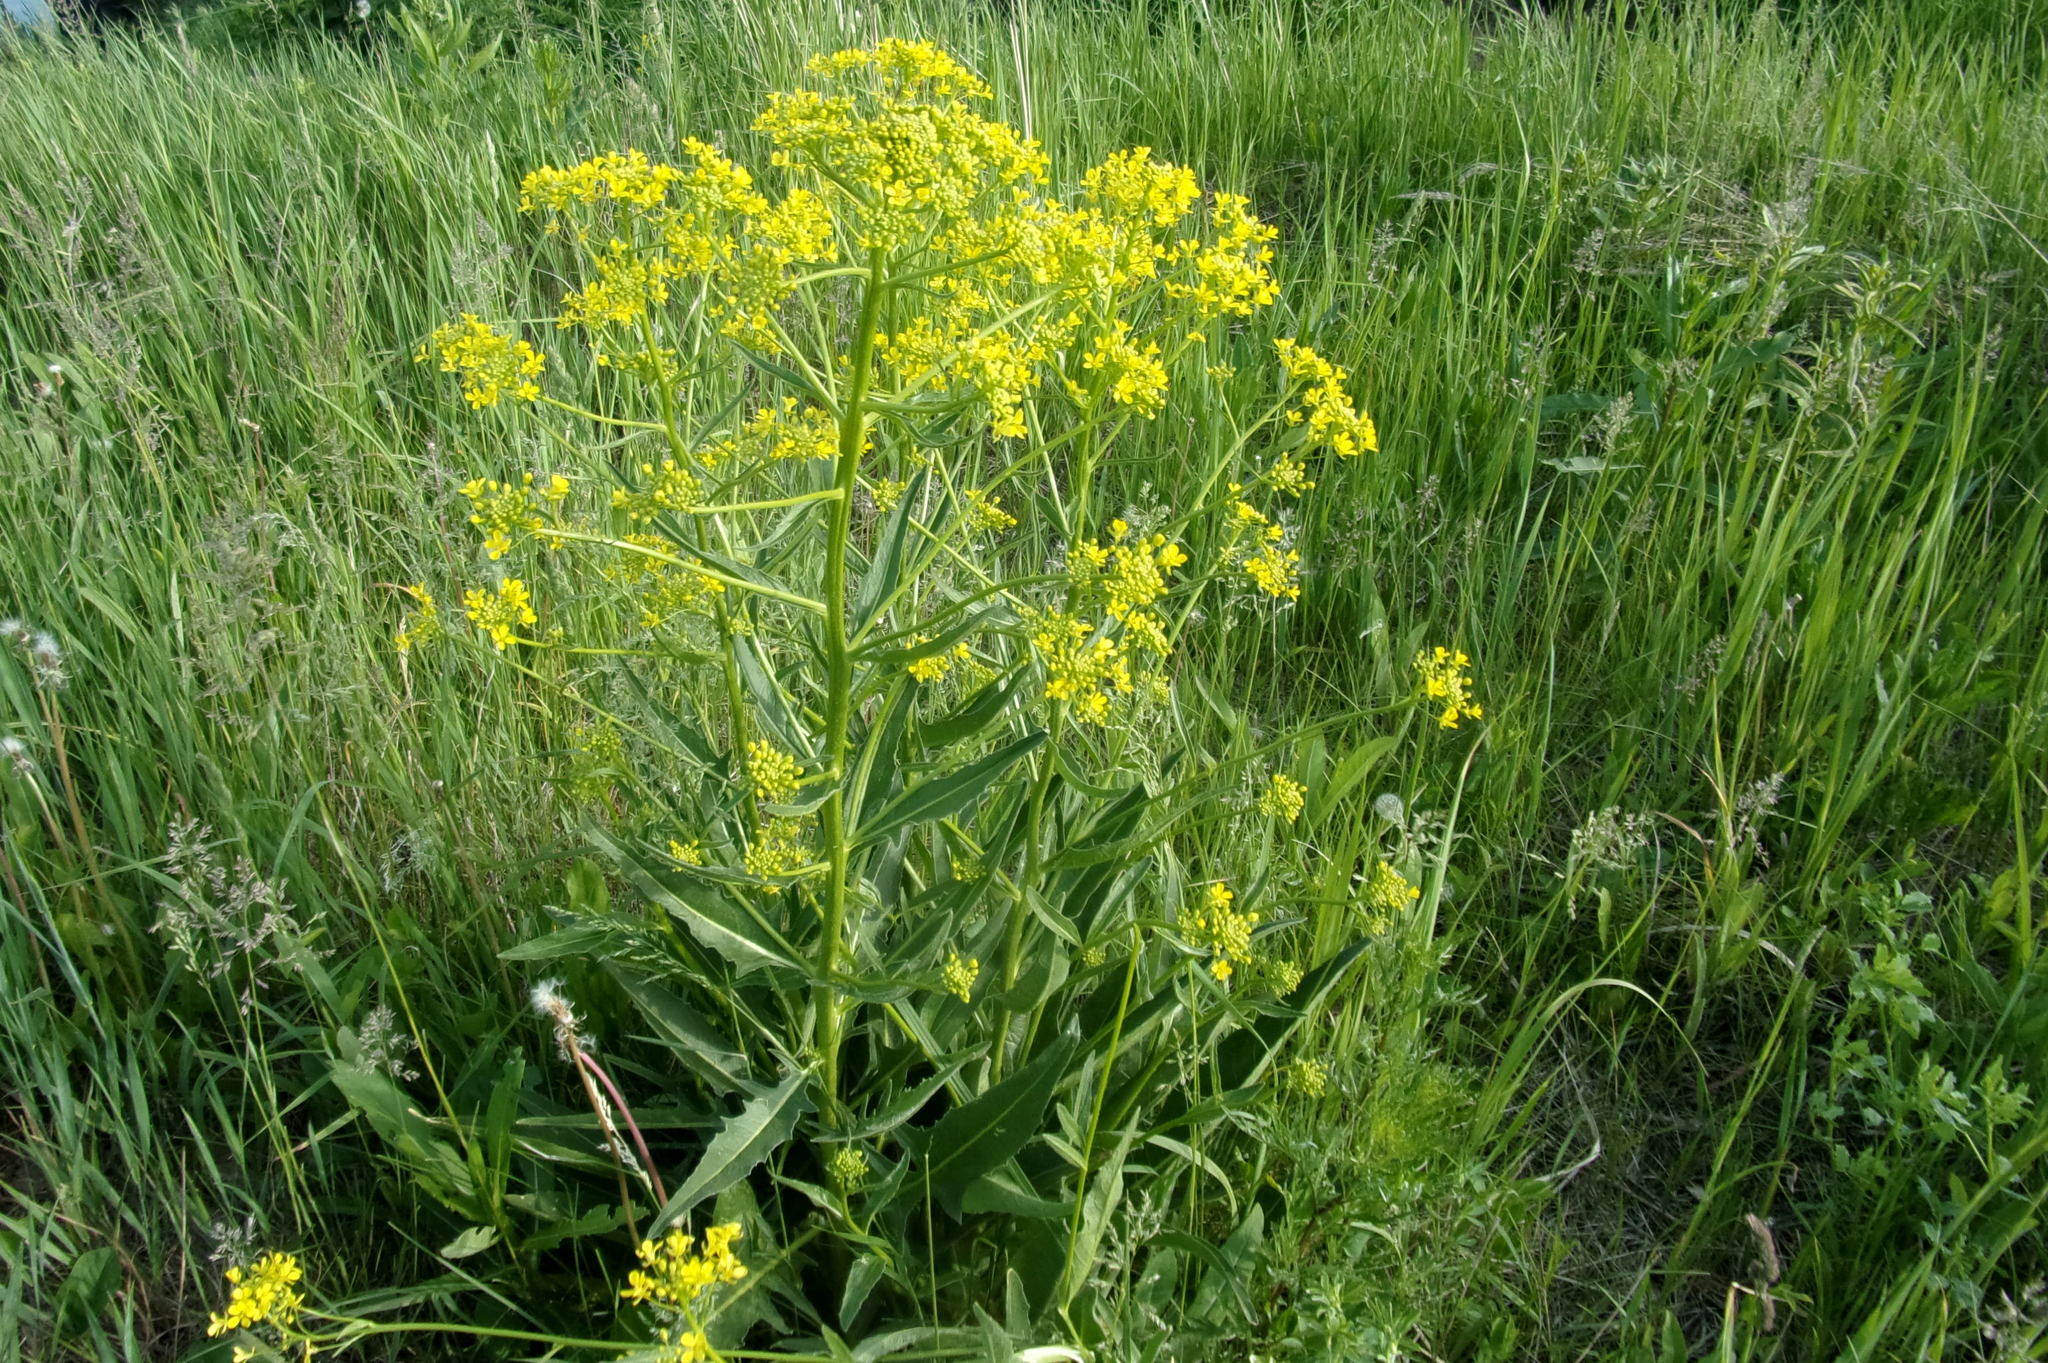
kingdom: Plantae
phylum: Tracheophyta
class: Magnoliopsida
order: Brassicales
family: Brassicaceae
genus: Bunias
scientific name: Bunias orientalis
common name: Warty-cabbage
